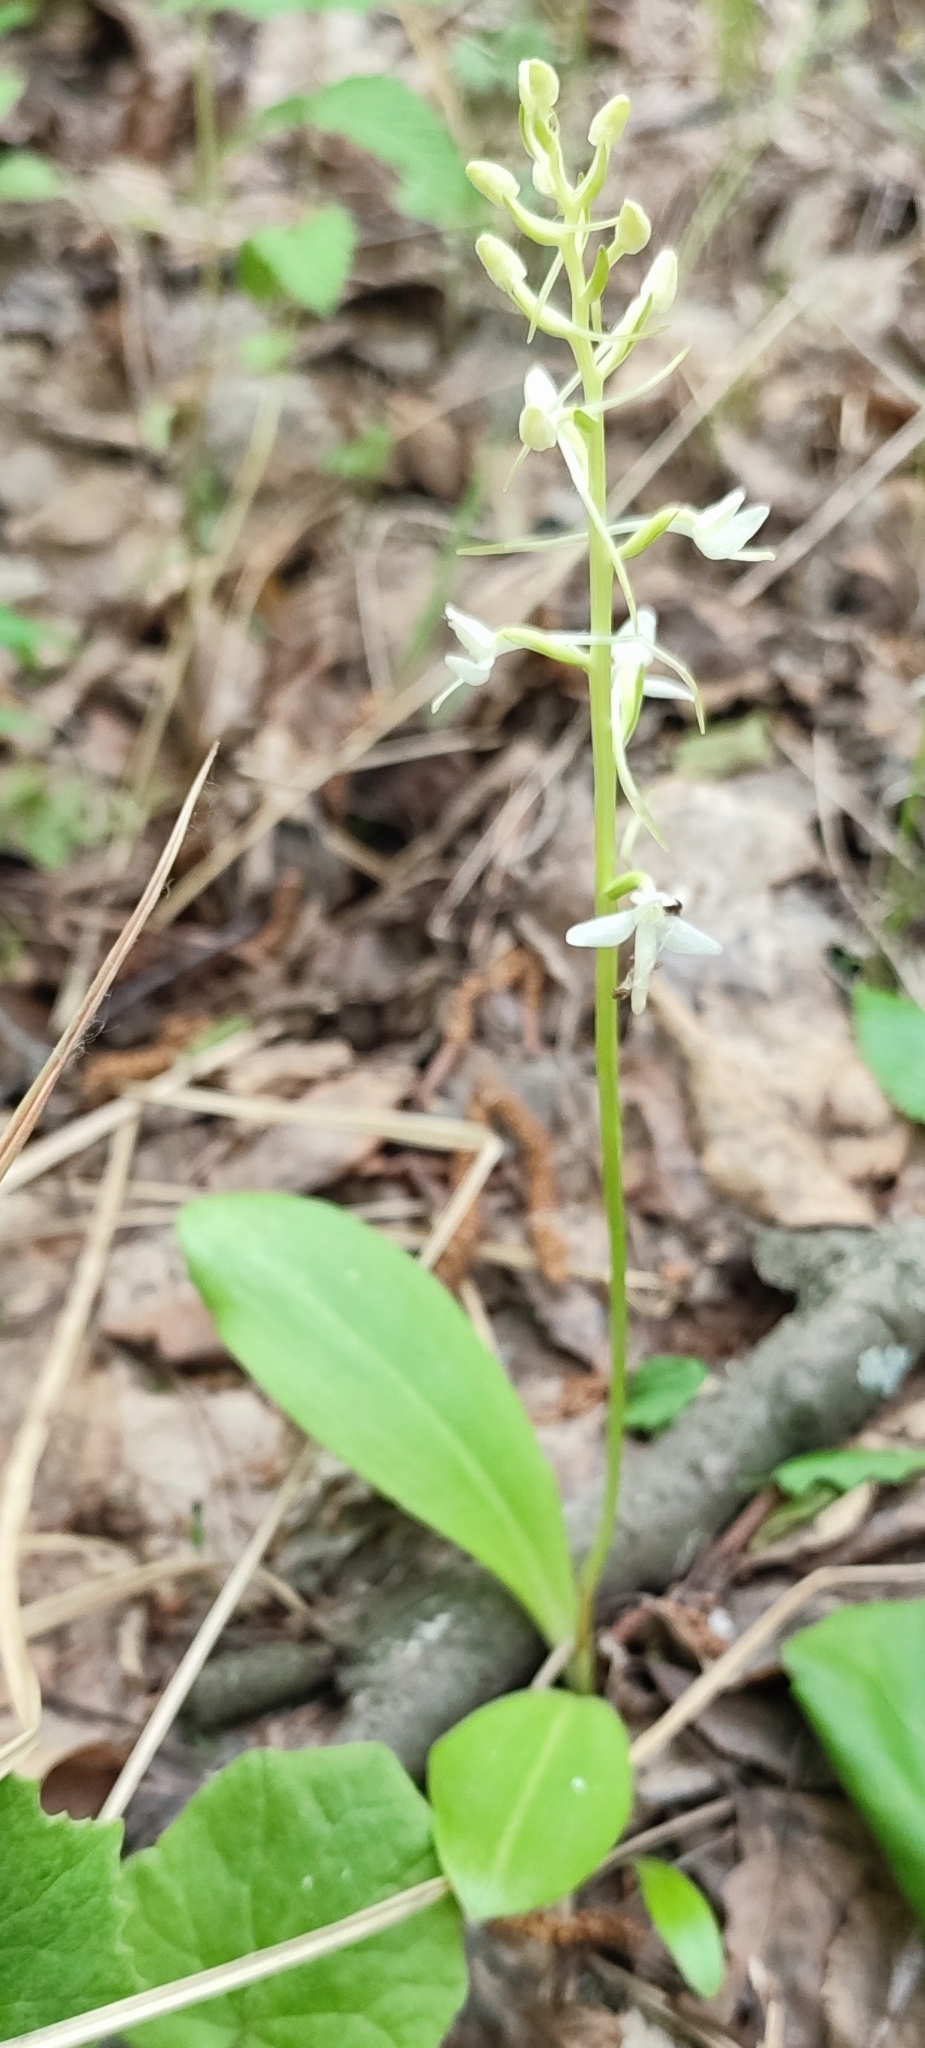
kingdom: Plantae
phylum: Tracheophyta
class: Liliopsida
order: Asparagales
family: Orchidaceae
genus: Platanthera
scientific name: Platanthera bifolia
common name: Lesser butterfly-orchid
